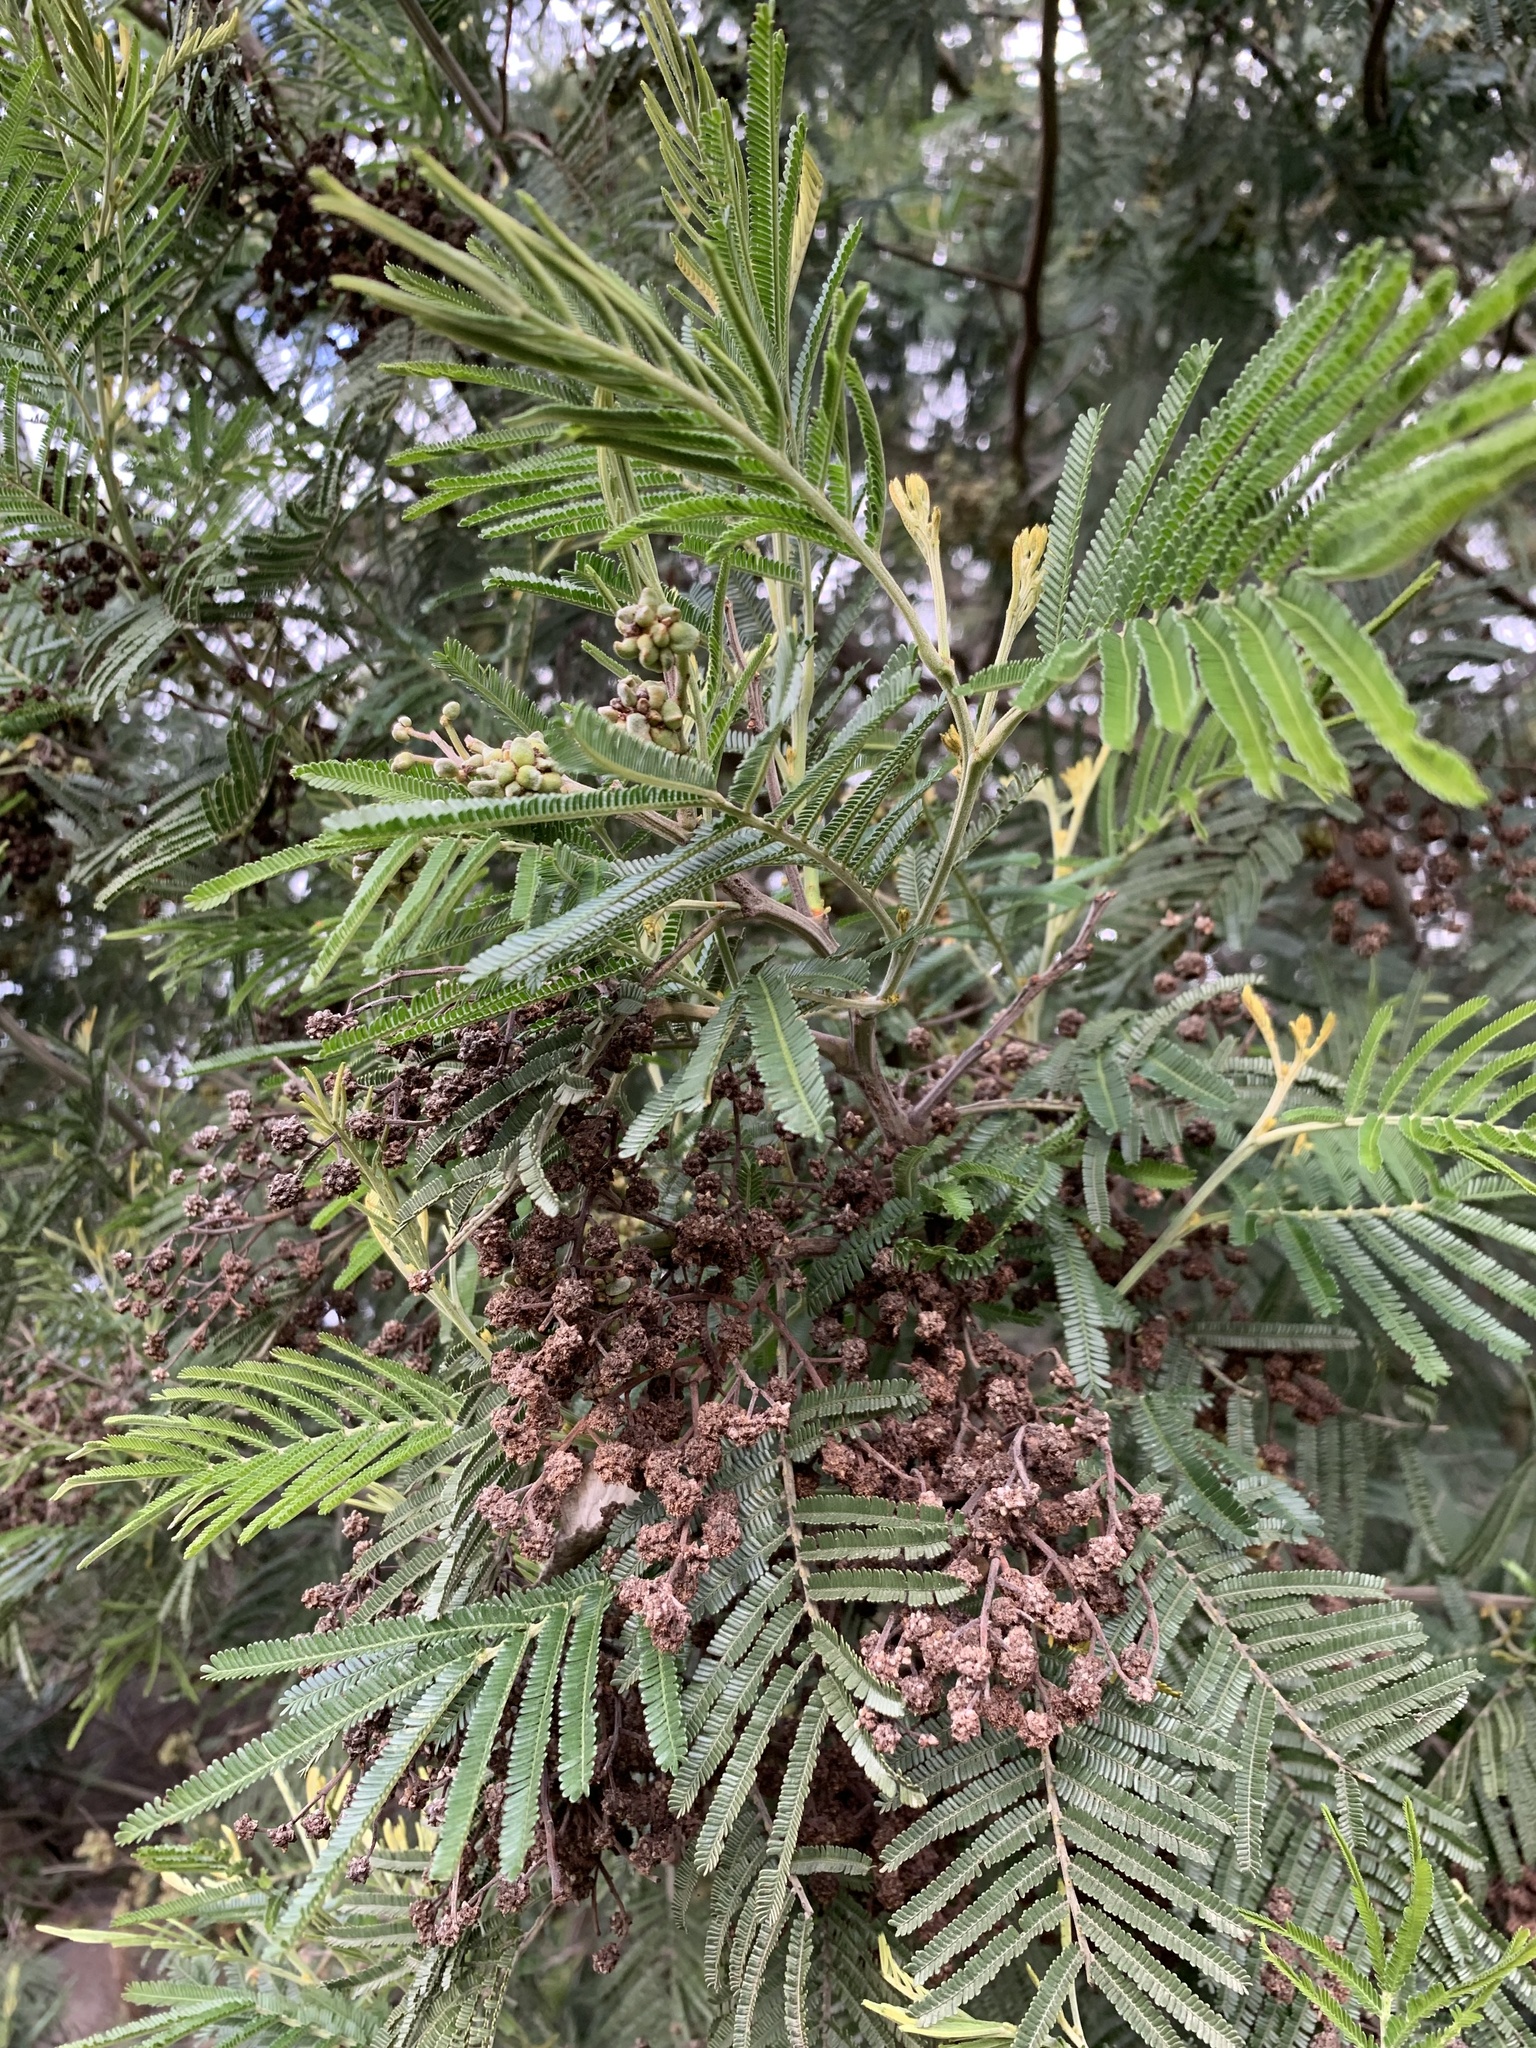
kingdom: Plantae
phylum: Tracheophyta
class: Magnoliopsida
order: Fabales
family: Fabaceae
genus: Acacia
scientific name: Acacia mearnsii
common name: Black wattle
